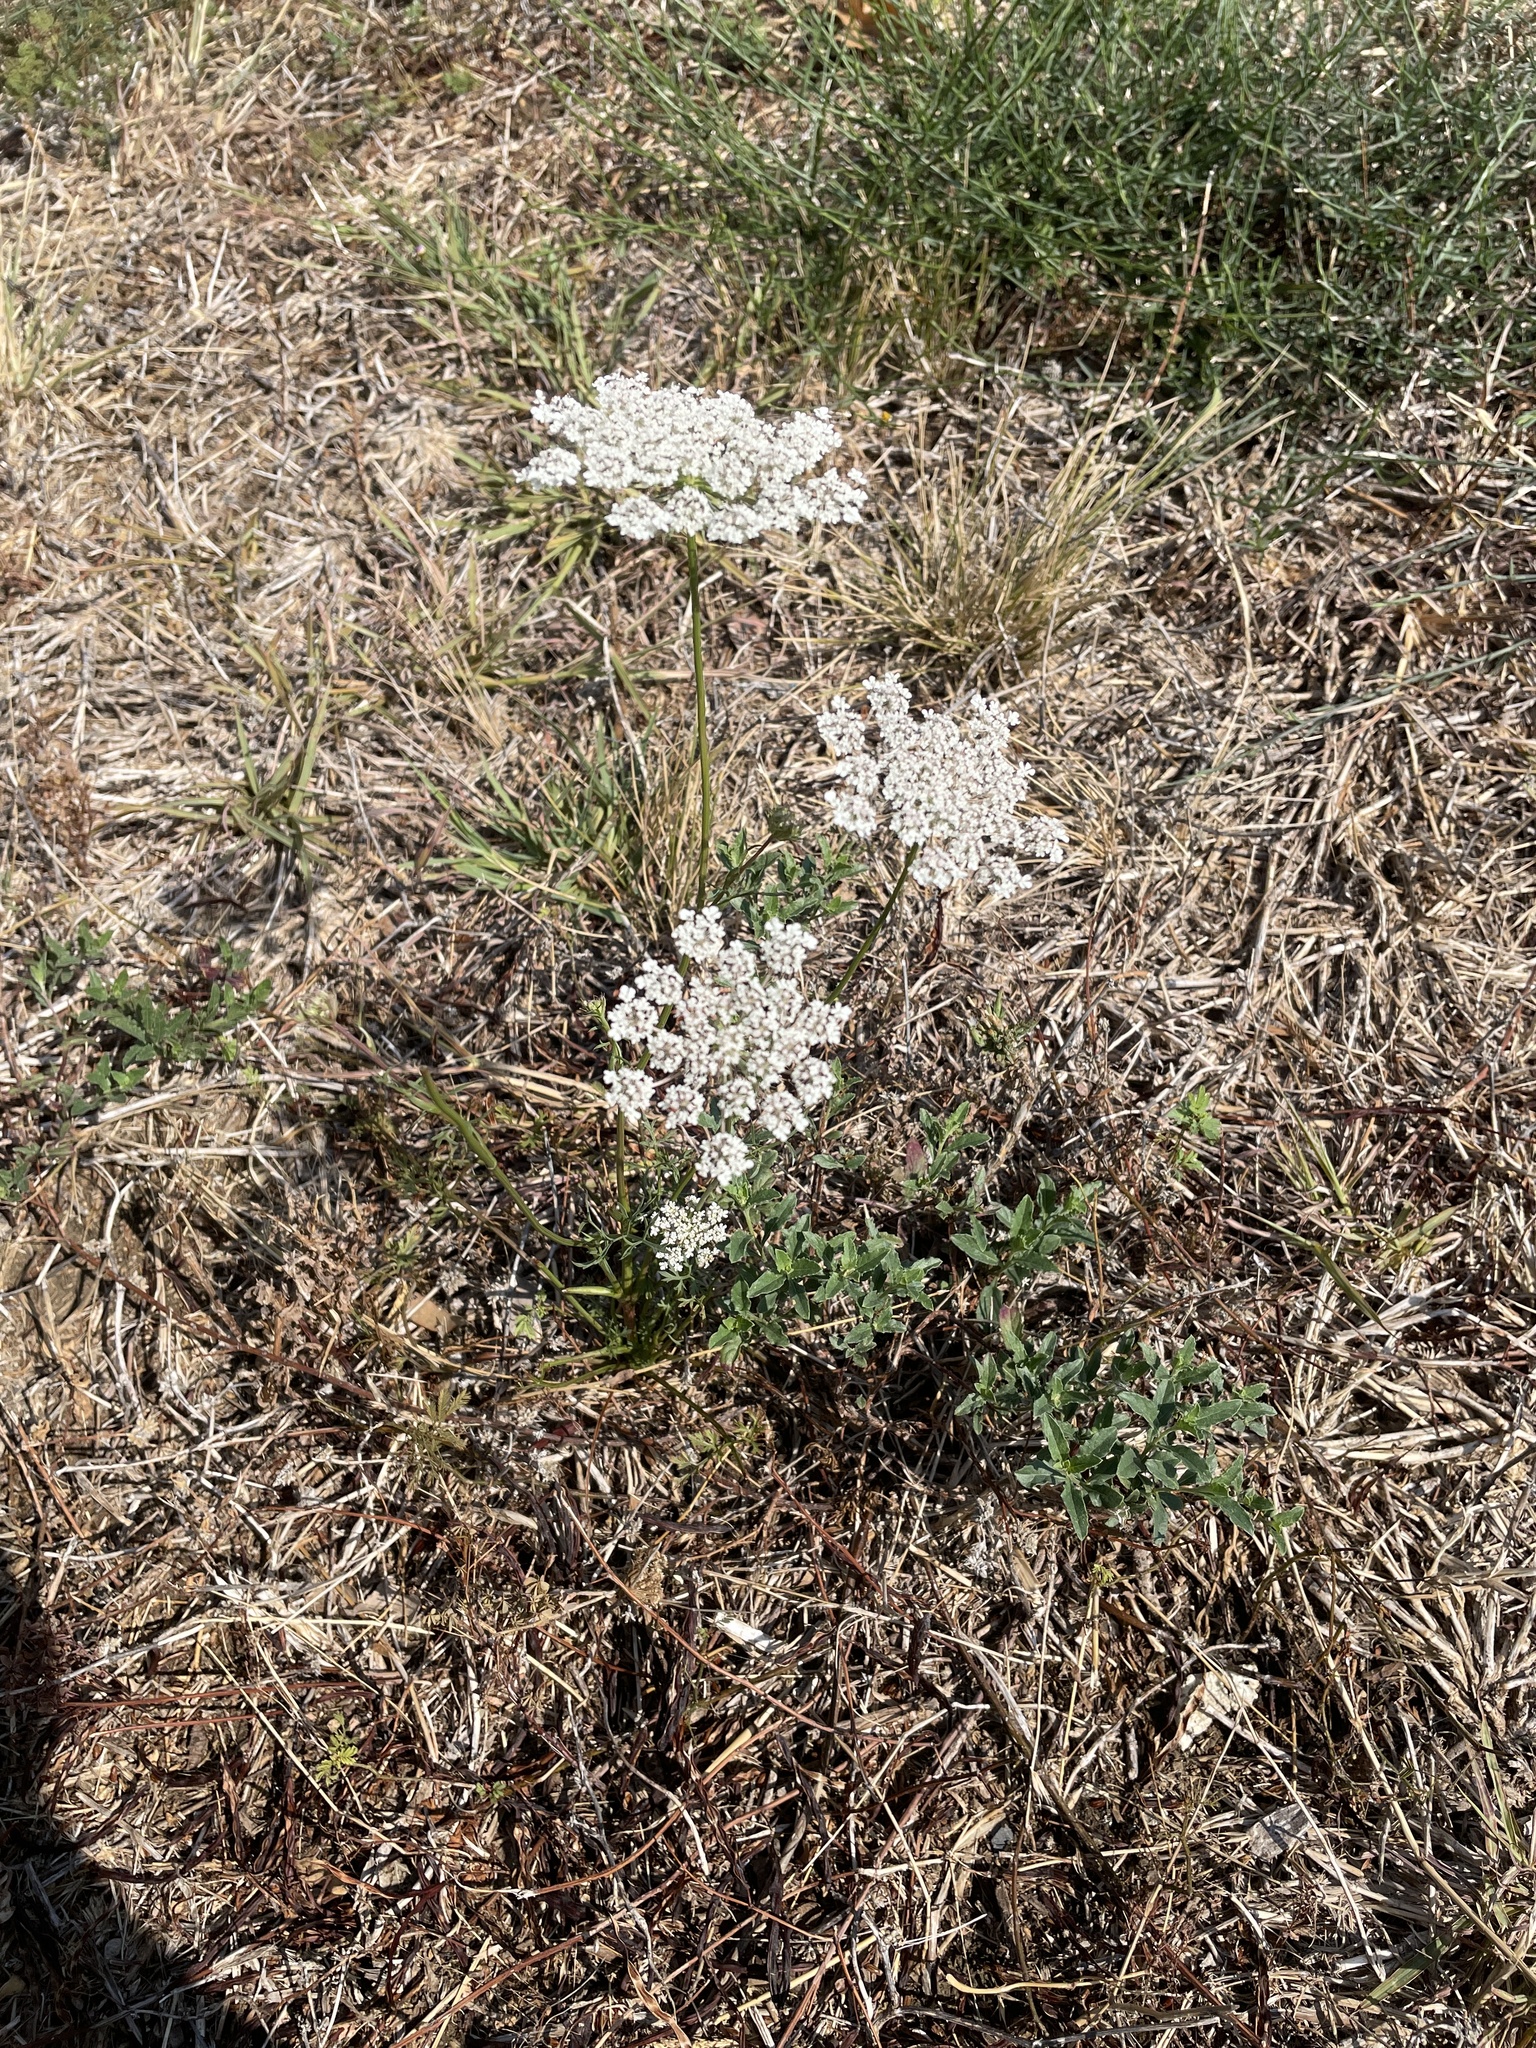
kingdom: Plantae
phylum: Tracheophyta
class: Magnoliopsida
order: Apiales
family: Apiaceae
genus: Daucus
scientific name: Daucus carota
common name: Wild carrot
